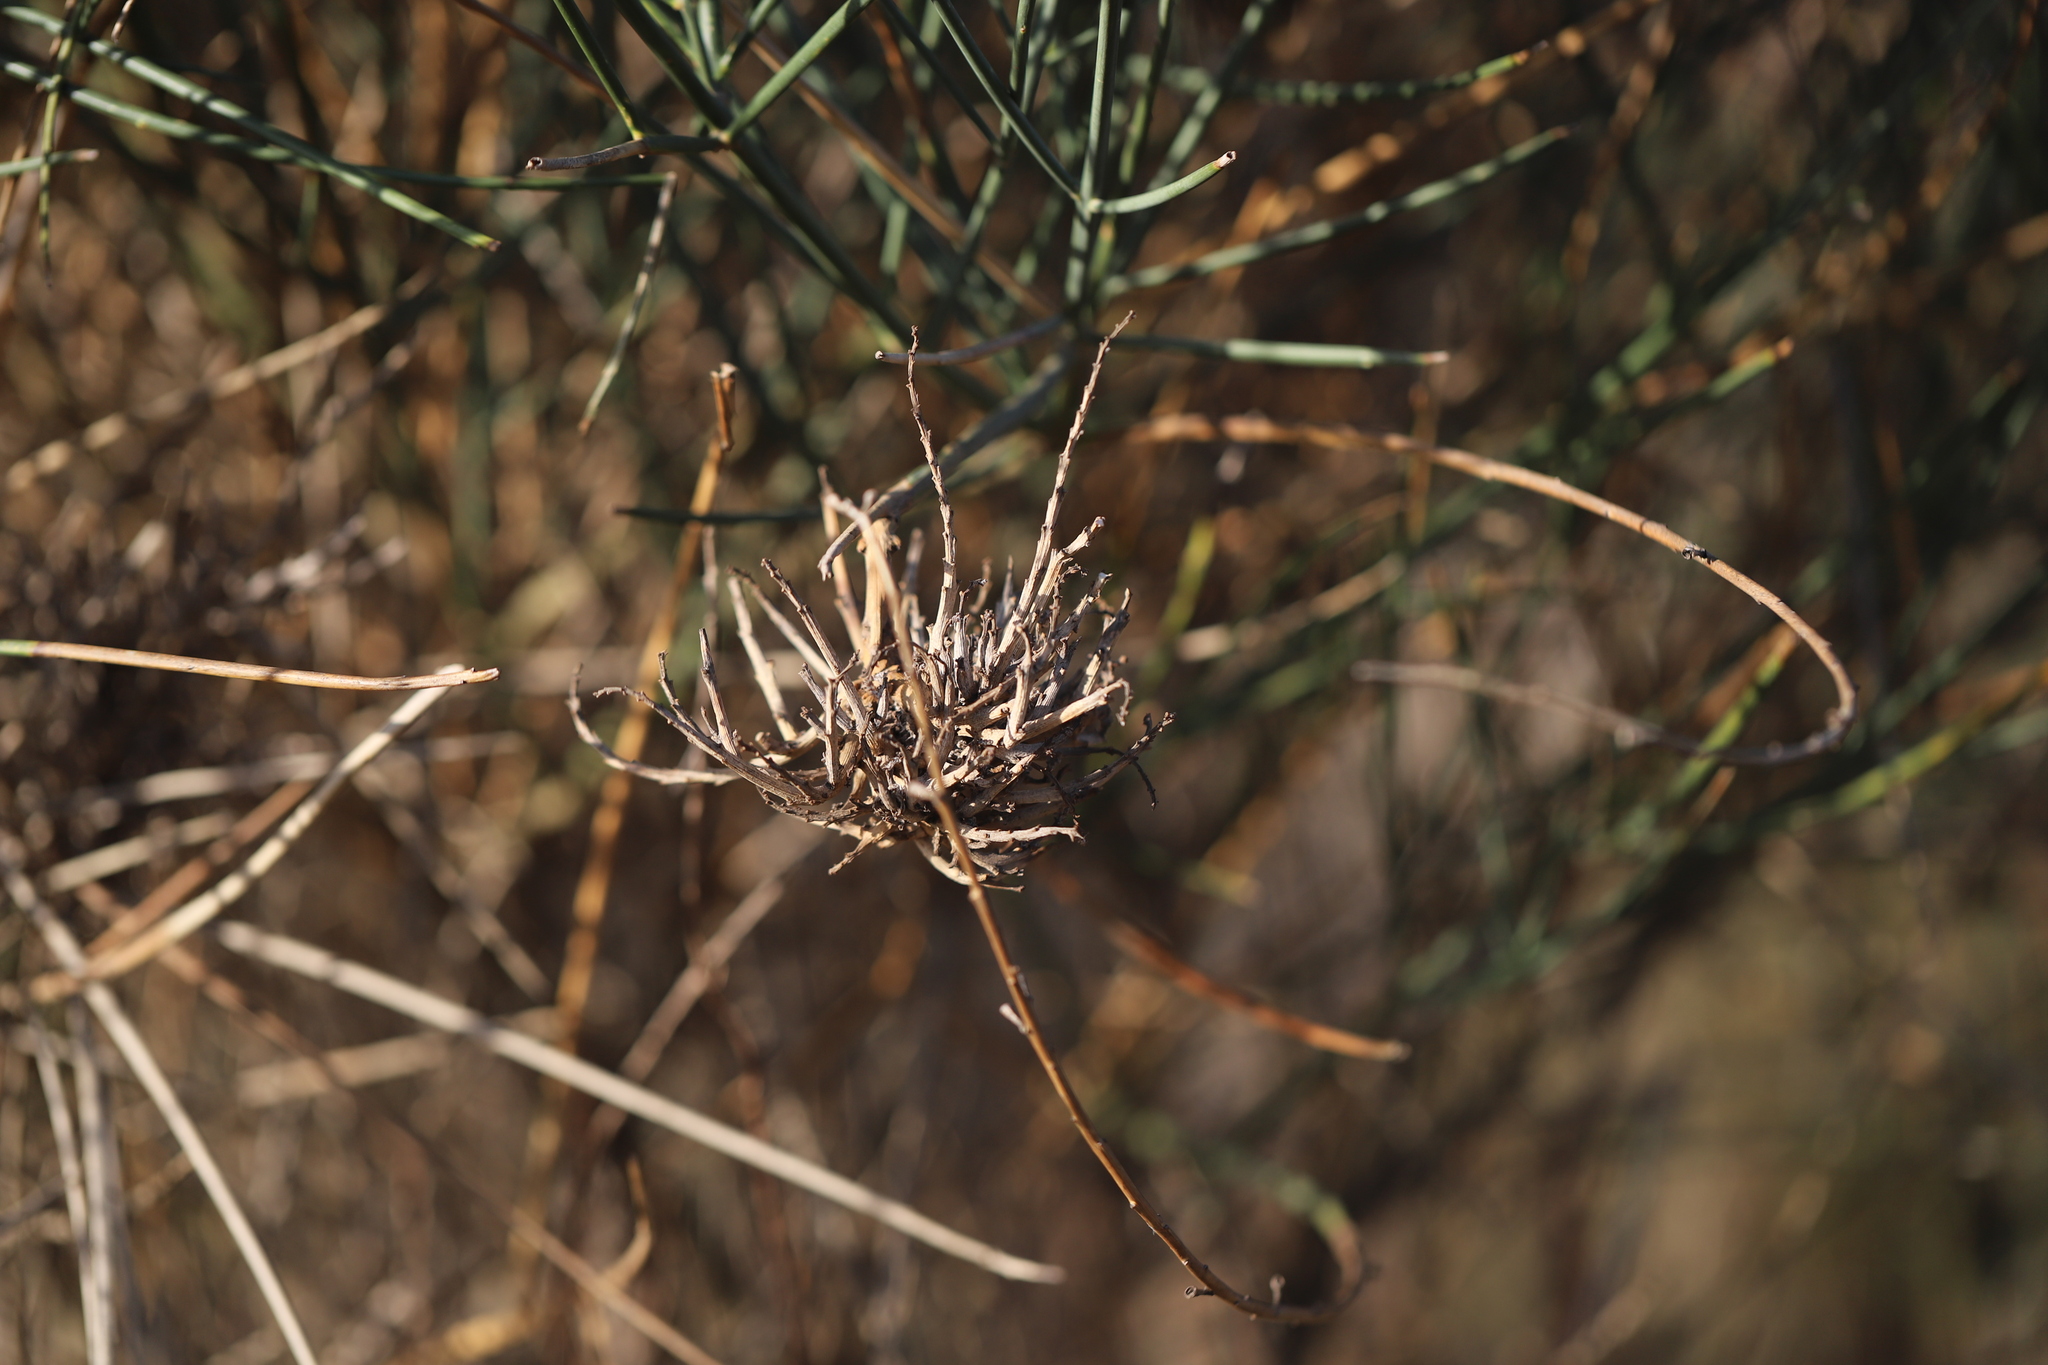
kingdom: Bacteria
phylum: Firmicutes
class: Bacilli
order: Acholeplasmatales
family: Acholeplasmataceae
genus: Phytoplasma
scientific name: Phytoplasma
